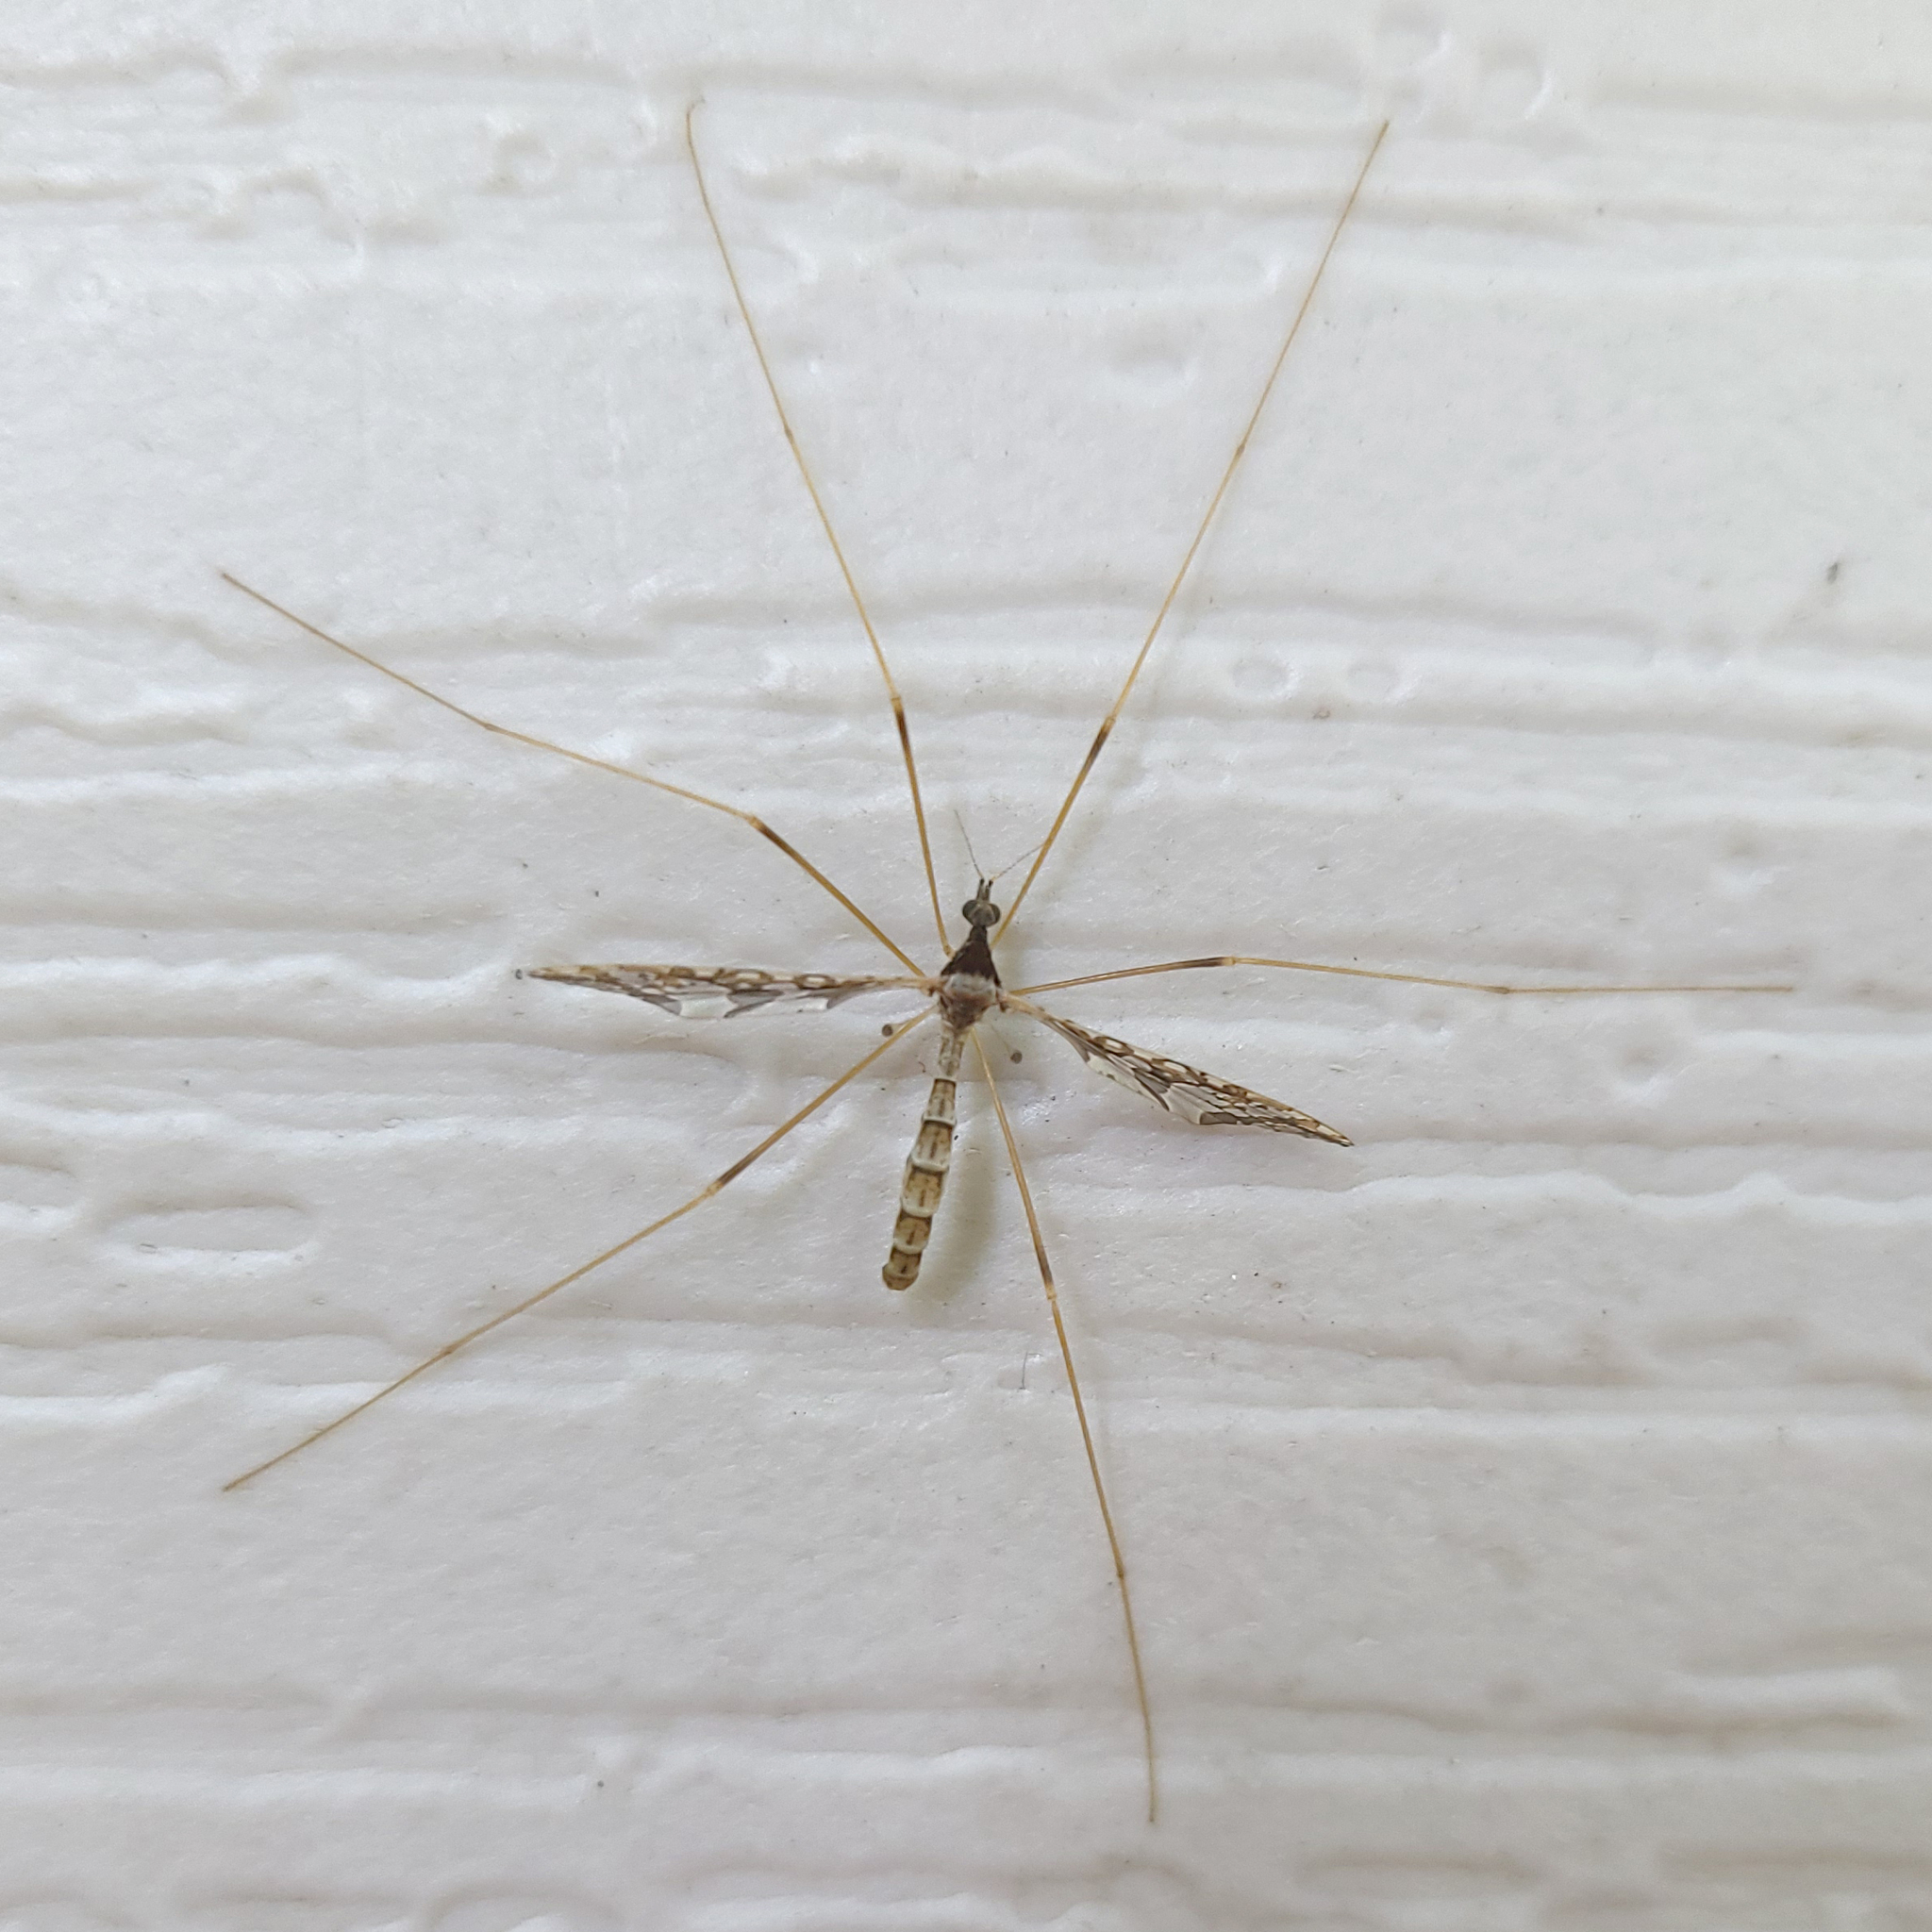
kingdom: Animalia
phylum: Arthropoda
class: Insecta
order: Diptera
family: Limoniidae
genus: Epiphragma
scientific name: Epiphragma solatrix
